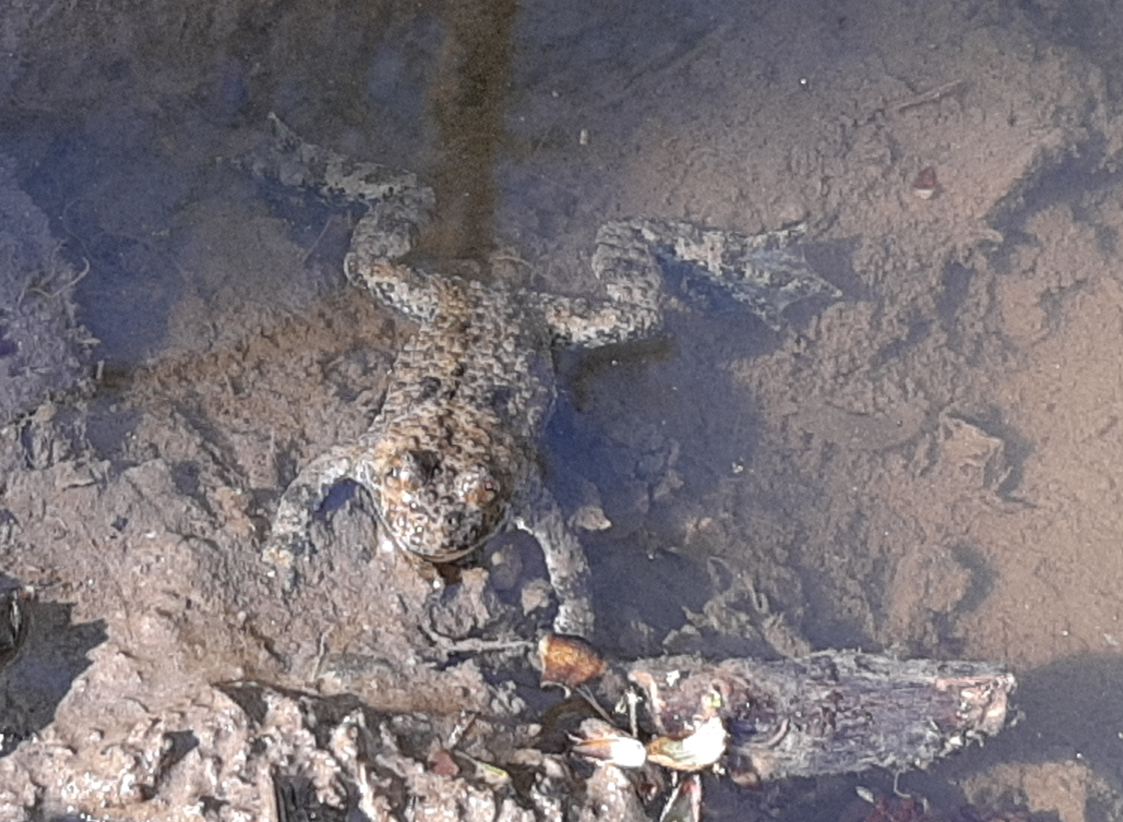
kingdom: Animalia
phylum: Chordata
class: Amphibia
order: Anura
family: Bombinatoridae
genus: Bombina
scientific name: Bombina variegata
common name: Yellow-bellied toad
